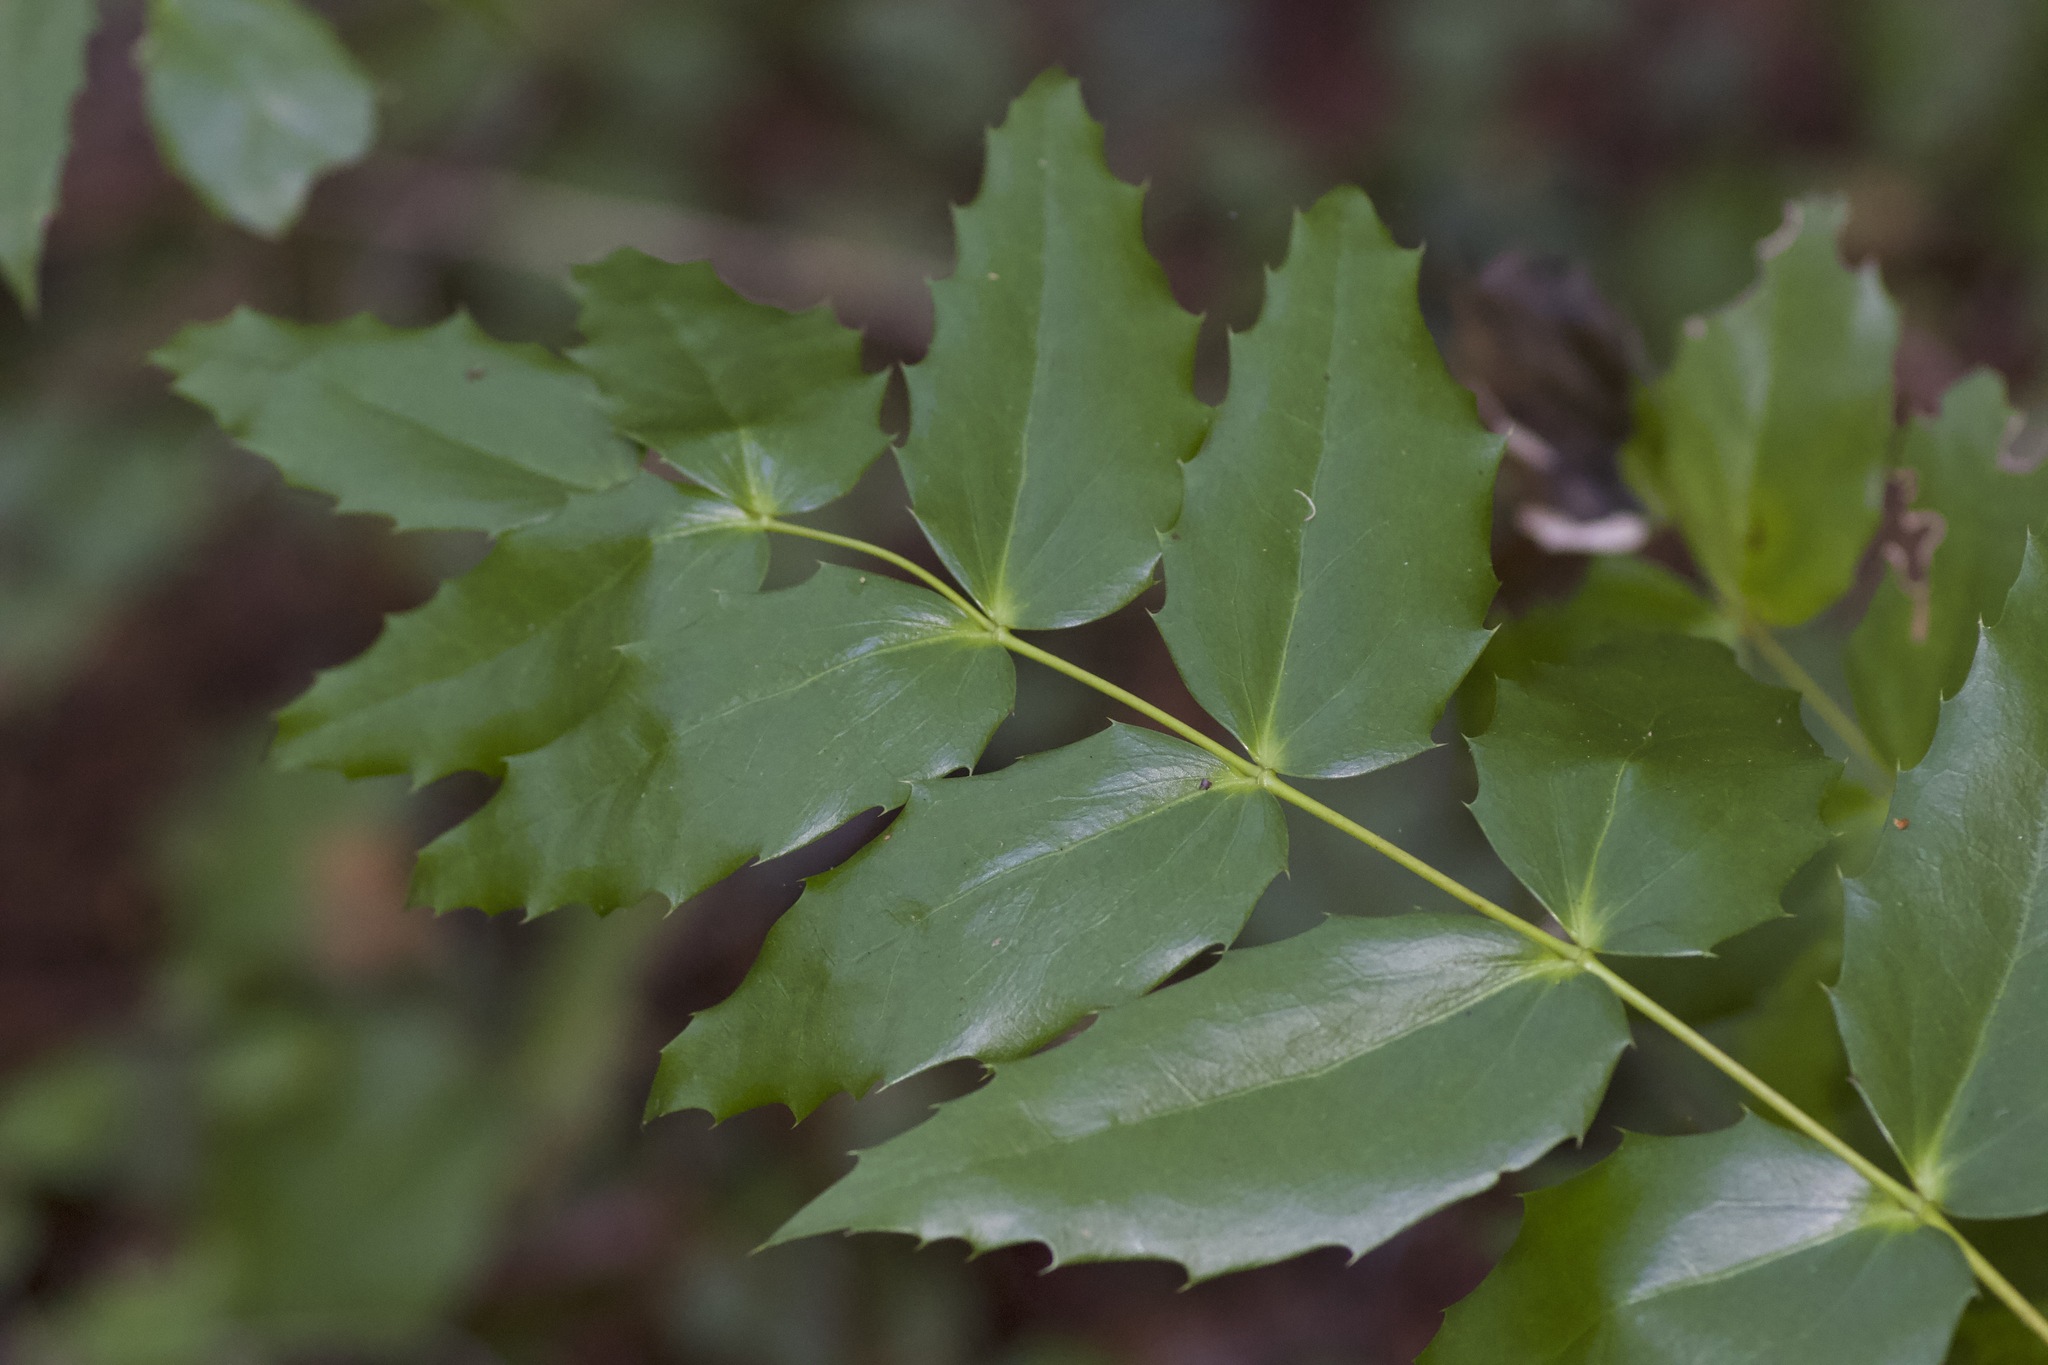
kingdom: Plantae
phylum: Tracheophyta
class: Magnoliopsida
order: Ranunculales
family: Berberidaceae
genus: Mahonia
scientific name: Mahonia nervosa
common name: Cascade oregon-grape
